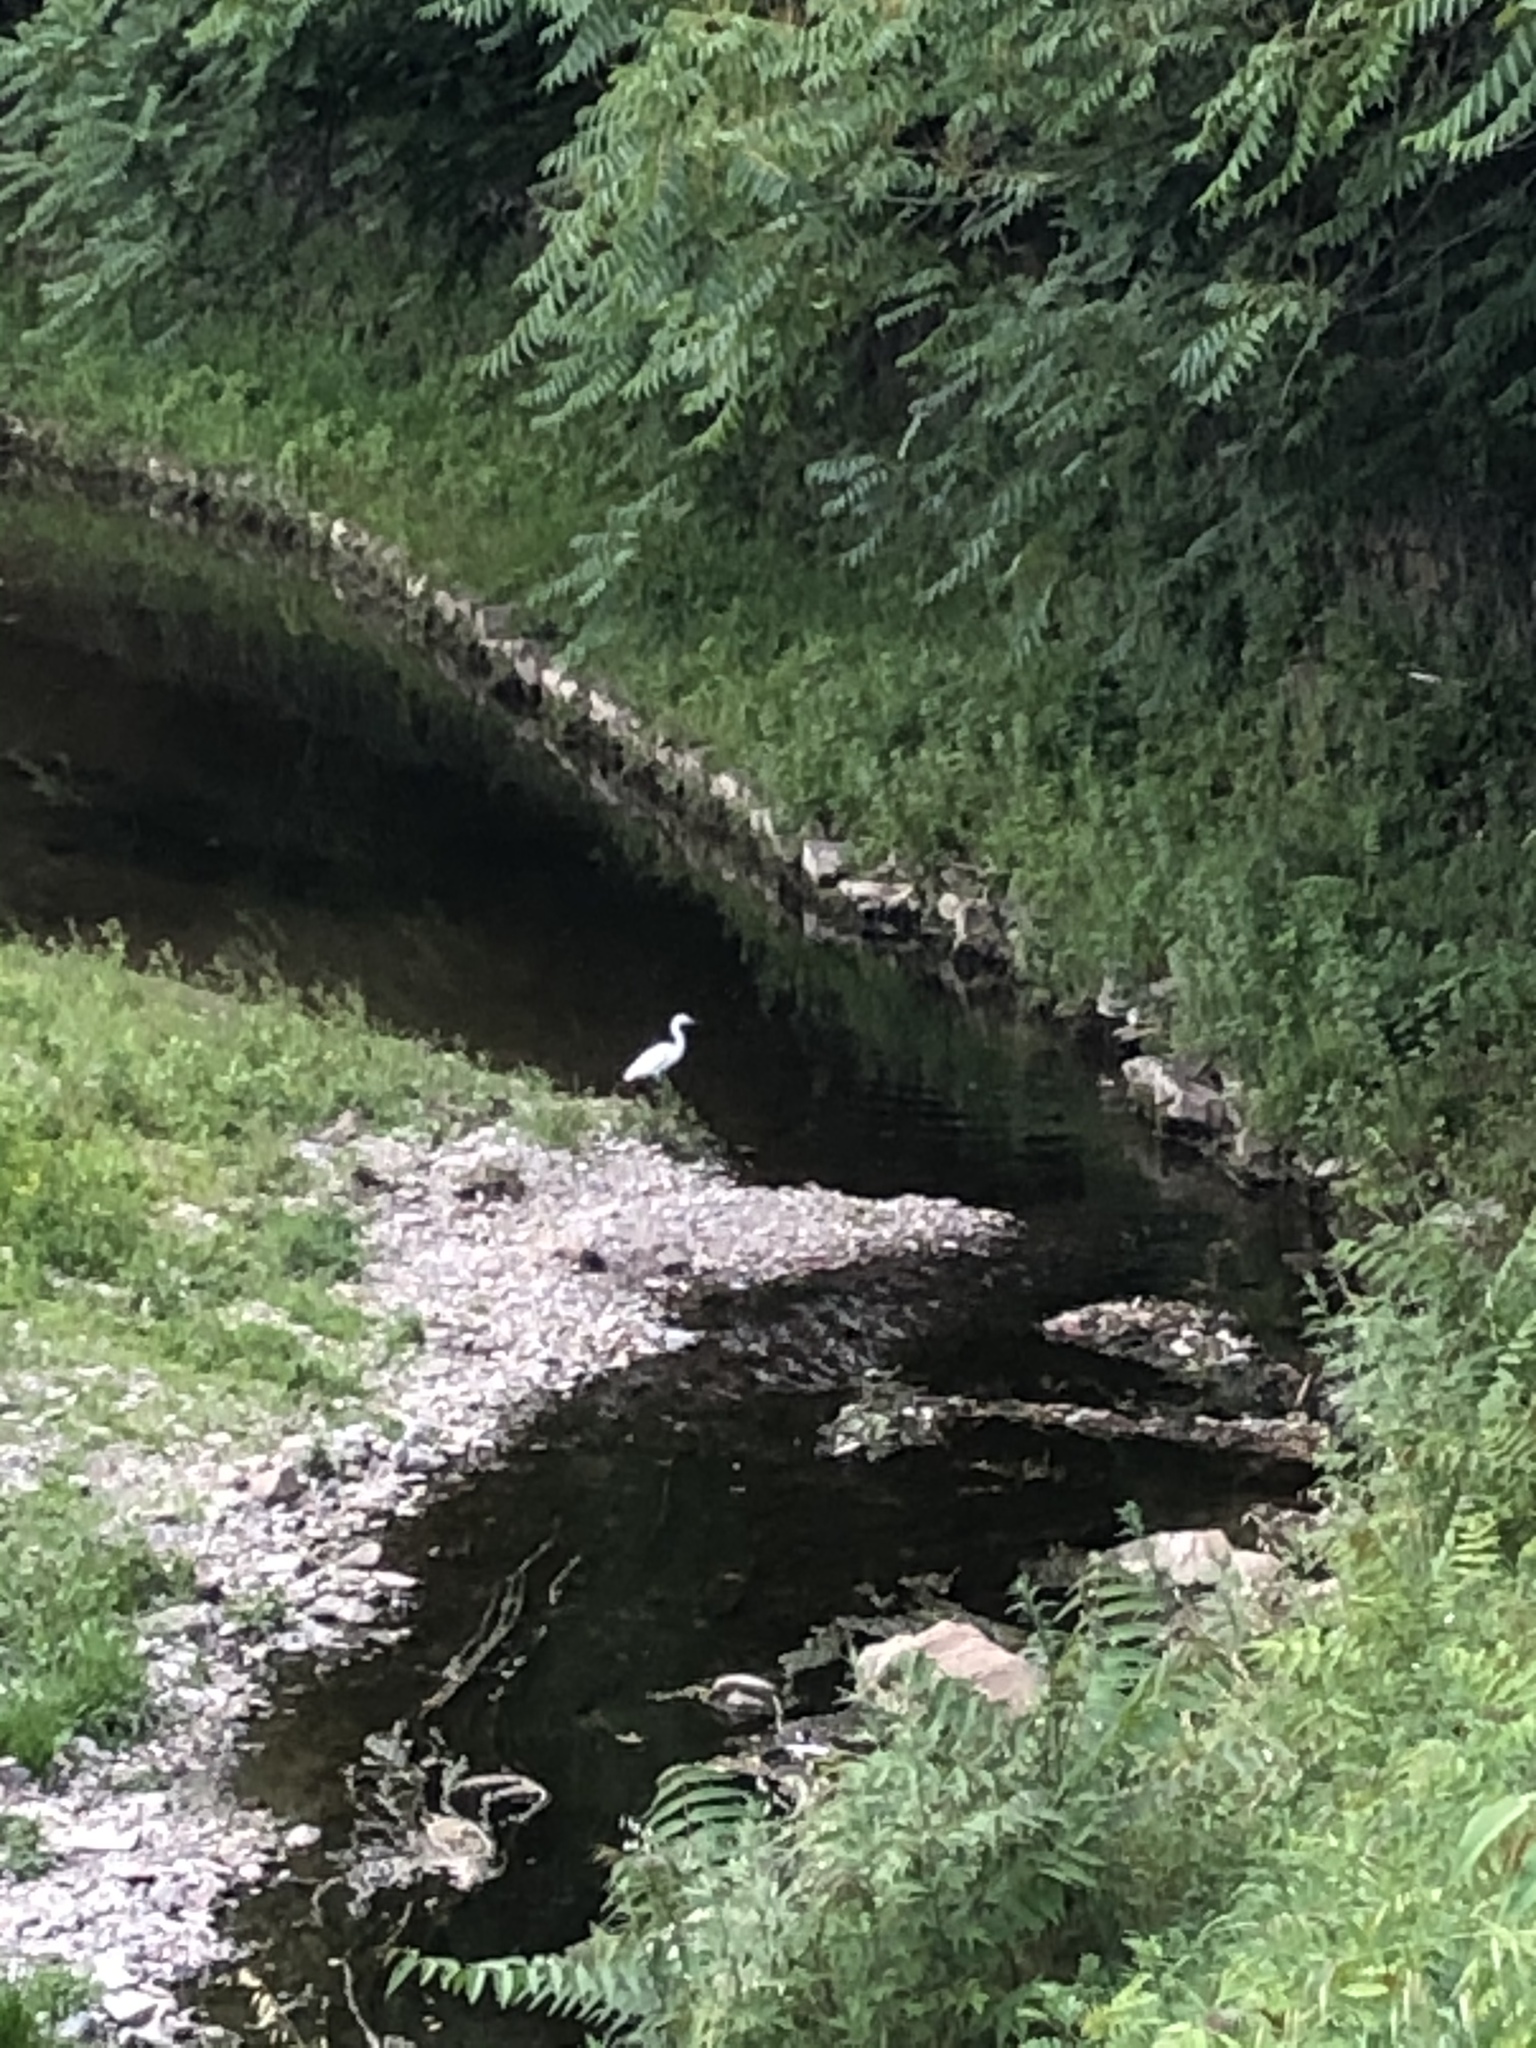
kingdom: Animalia
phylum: Chordata
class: Aves
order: Pelecaniformes
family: Ardeidae
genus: Egretta
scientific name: Egretta garzetta
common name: Little egret
